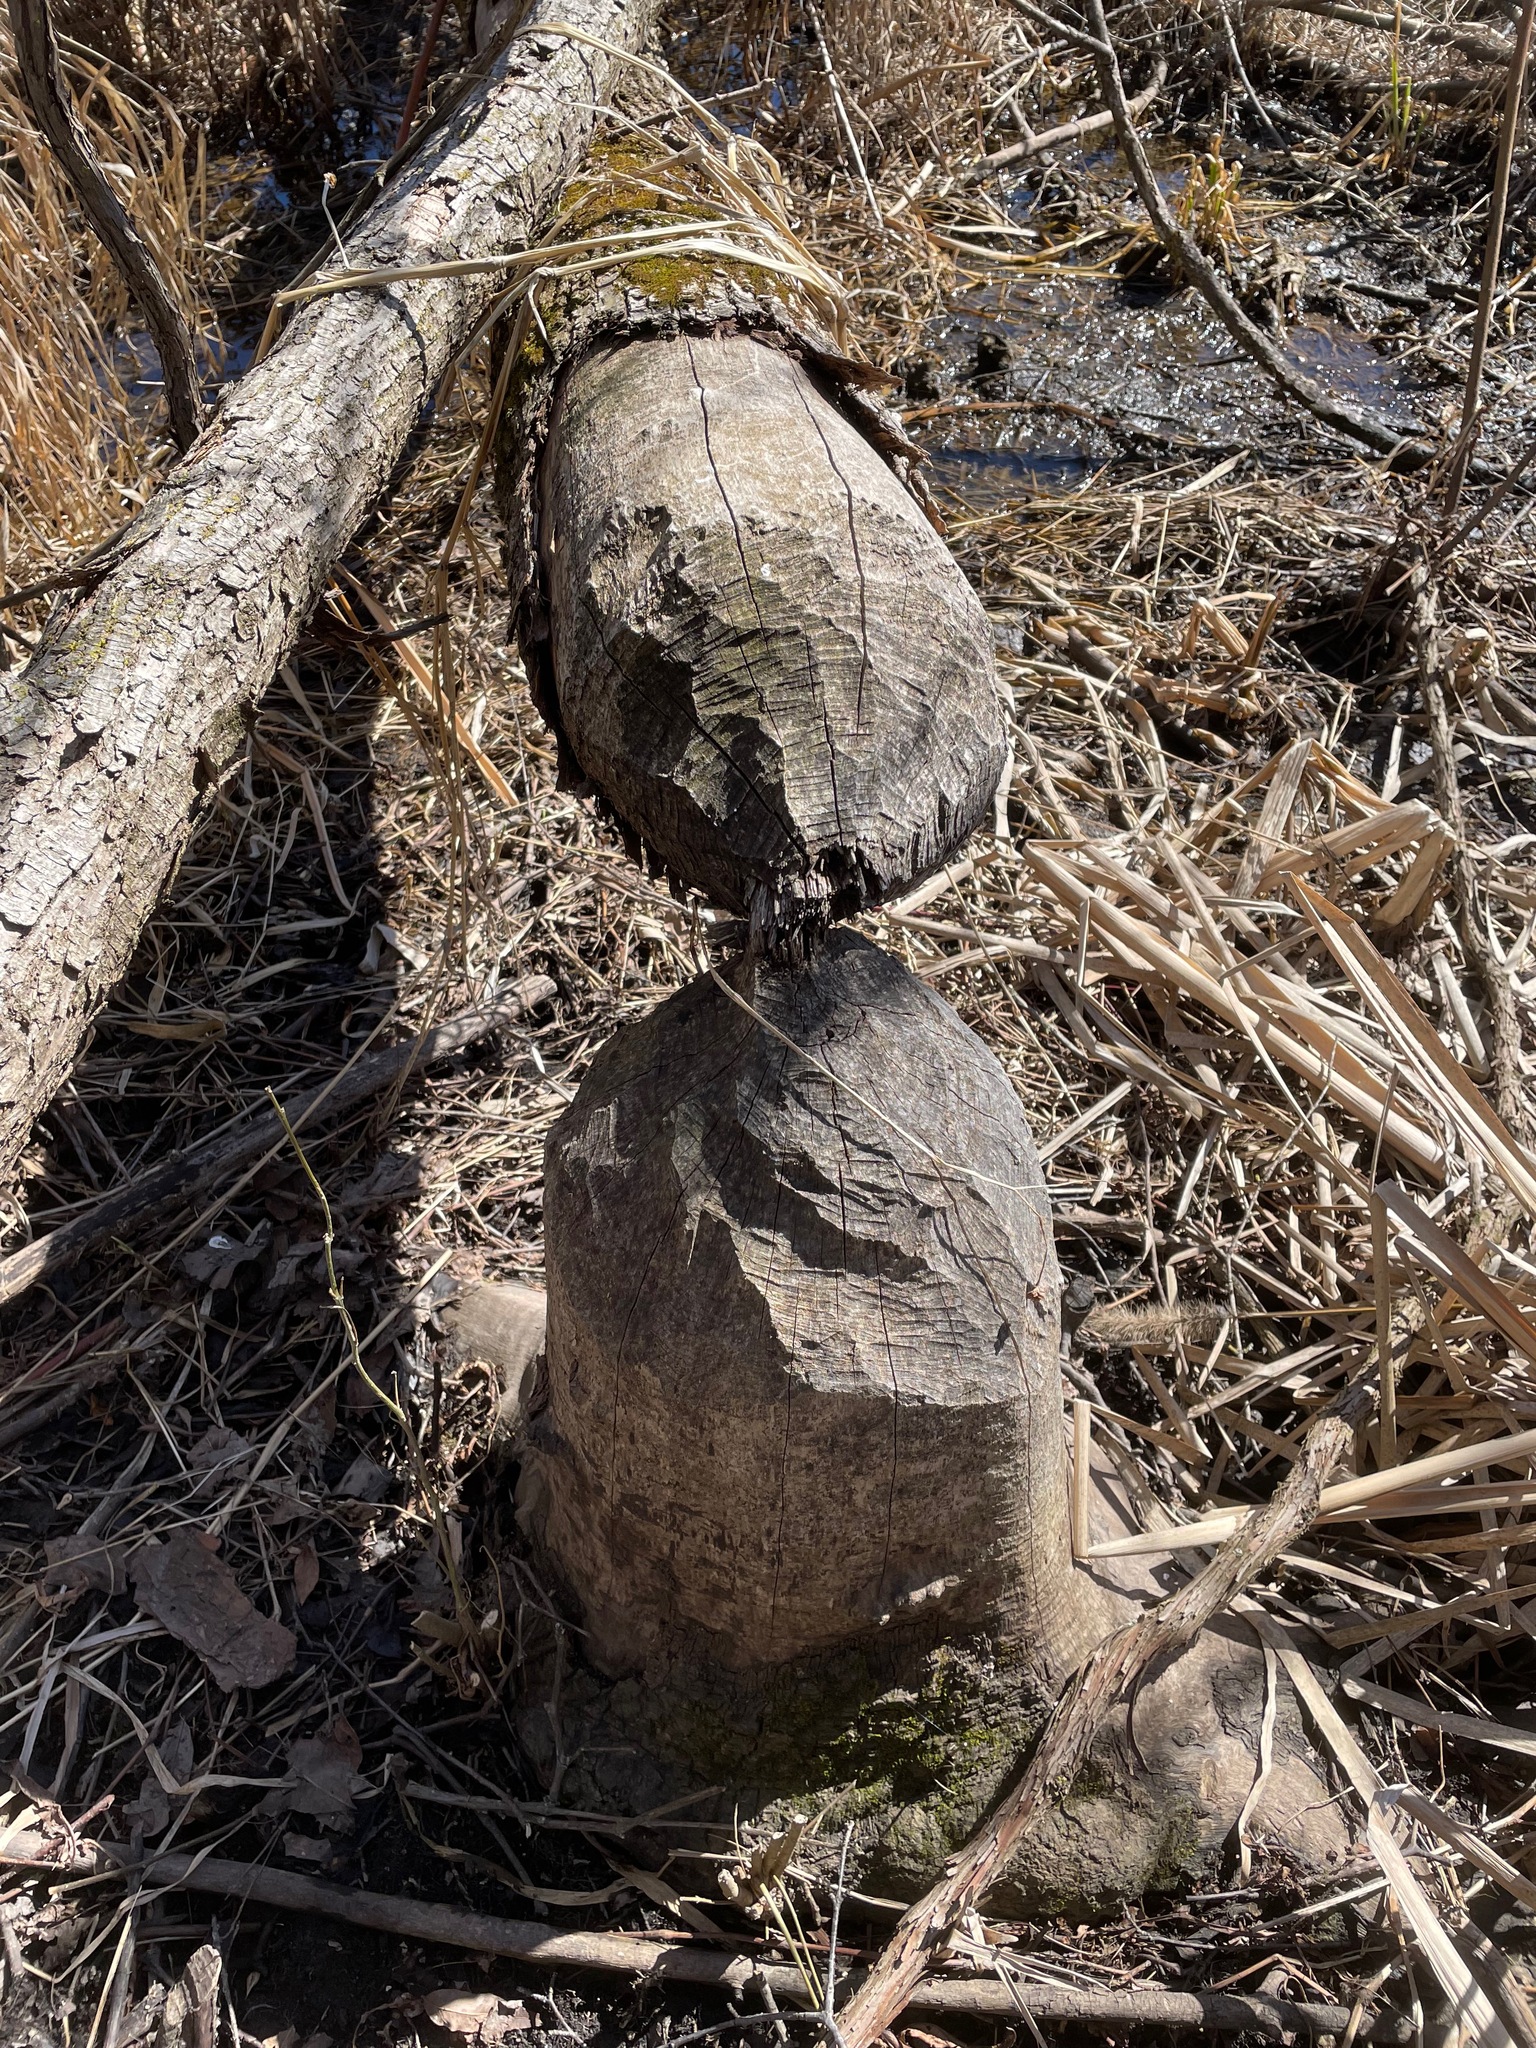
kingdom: Animalia
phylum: Chordata
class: Mammalia
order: Rodentia
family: Castoridae
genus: Castor
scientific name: Castor canadensis
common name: American beaver
